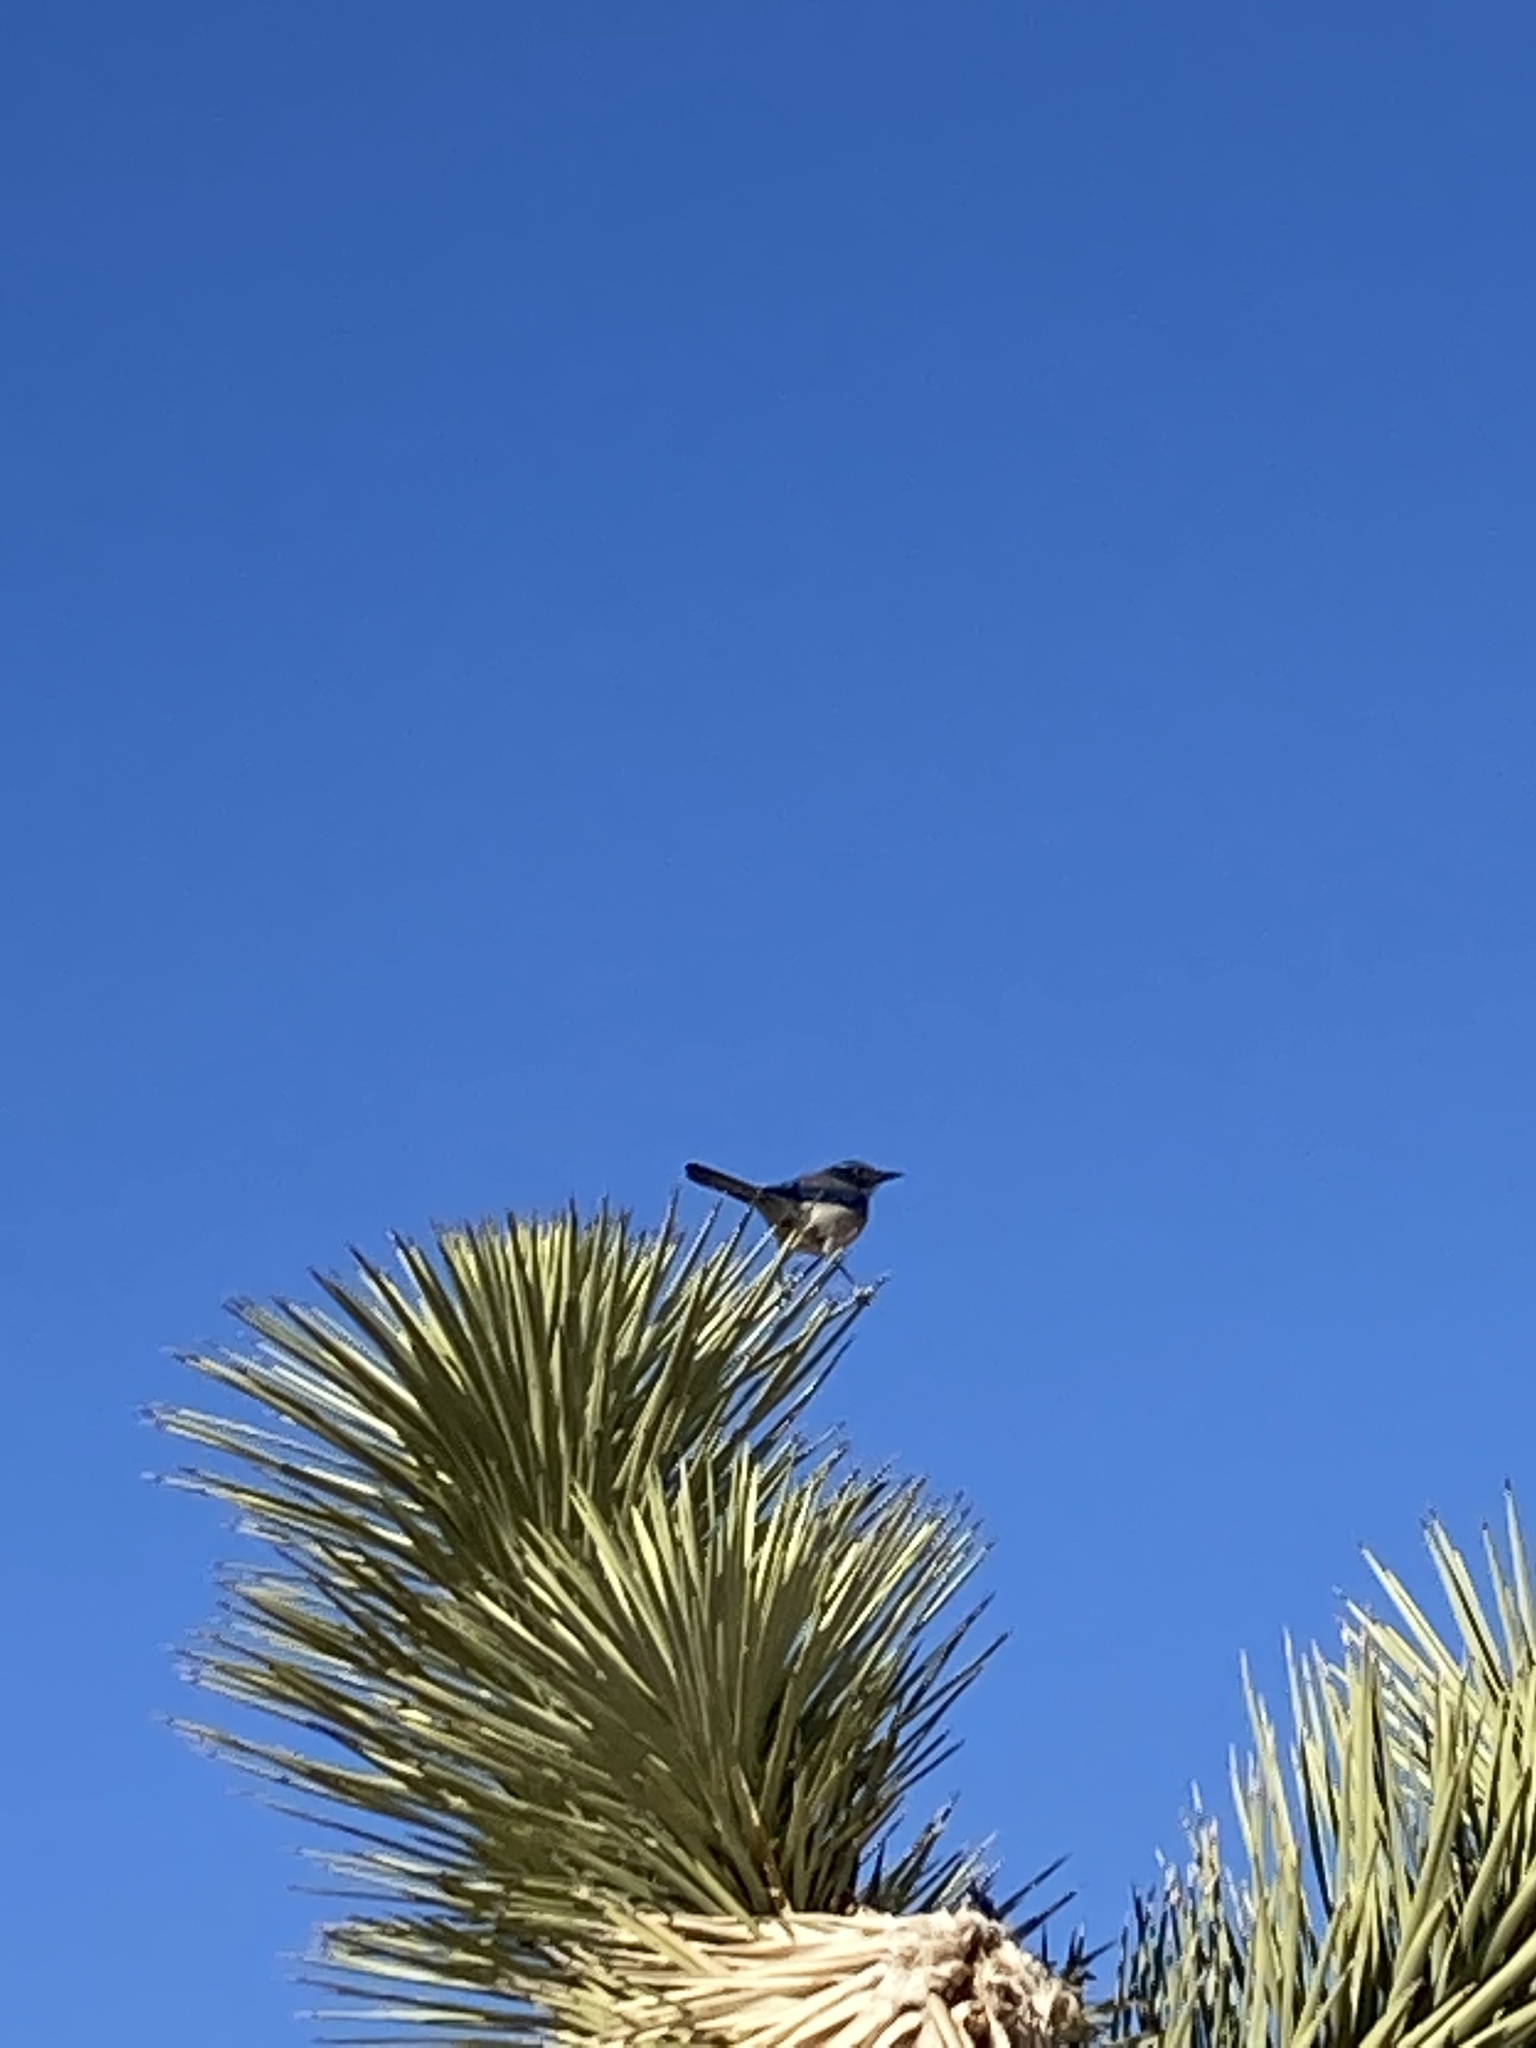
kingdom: Animalia
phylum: Chordata
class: Aves
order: Passeriformes
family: Corvidae
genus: Aphelocoma
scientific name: Aphelocoma californica
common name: California scrub-jay
